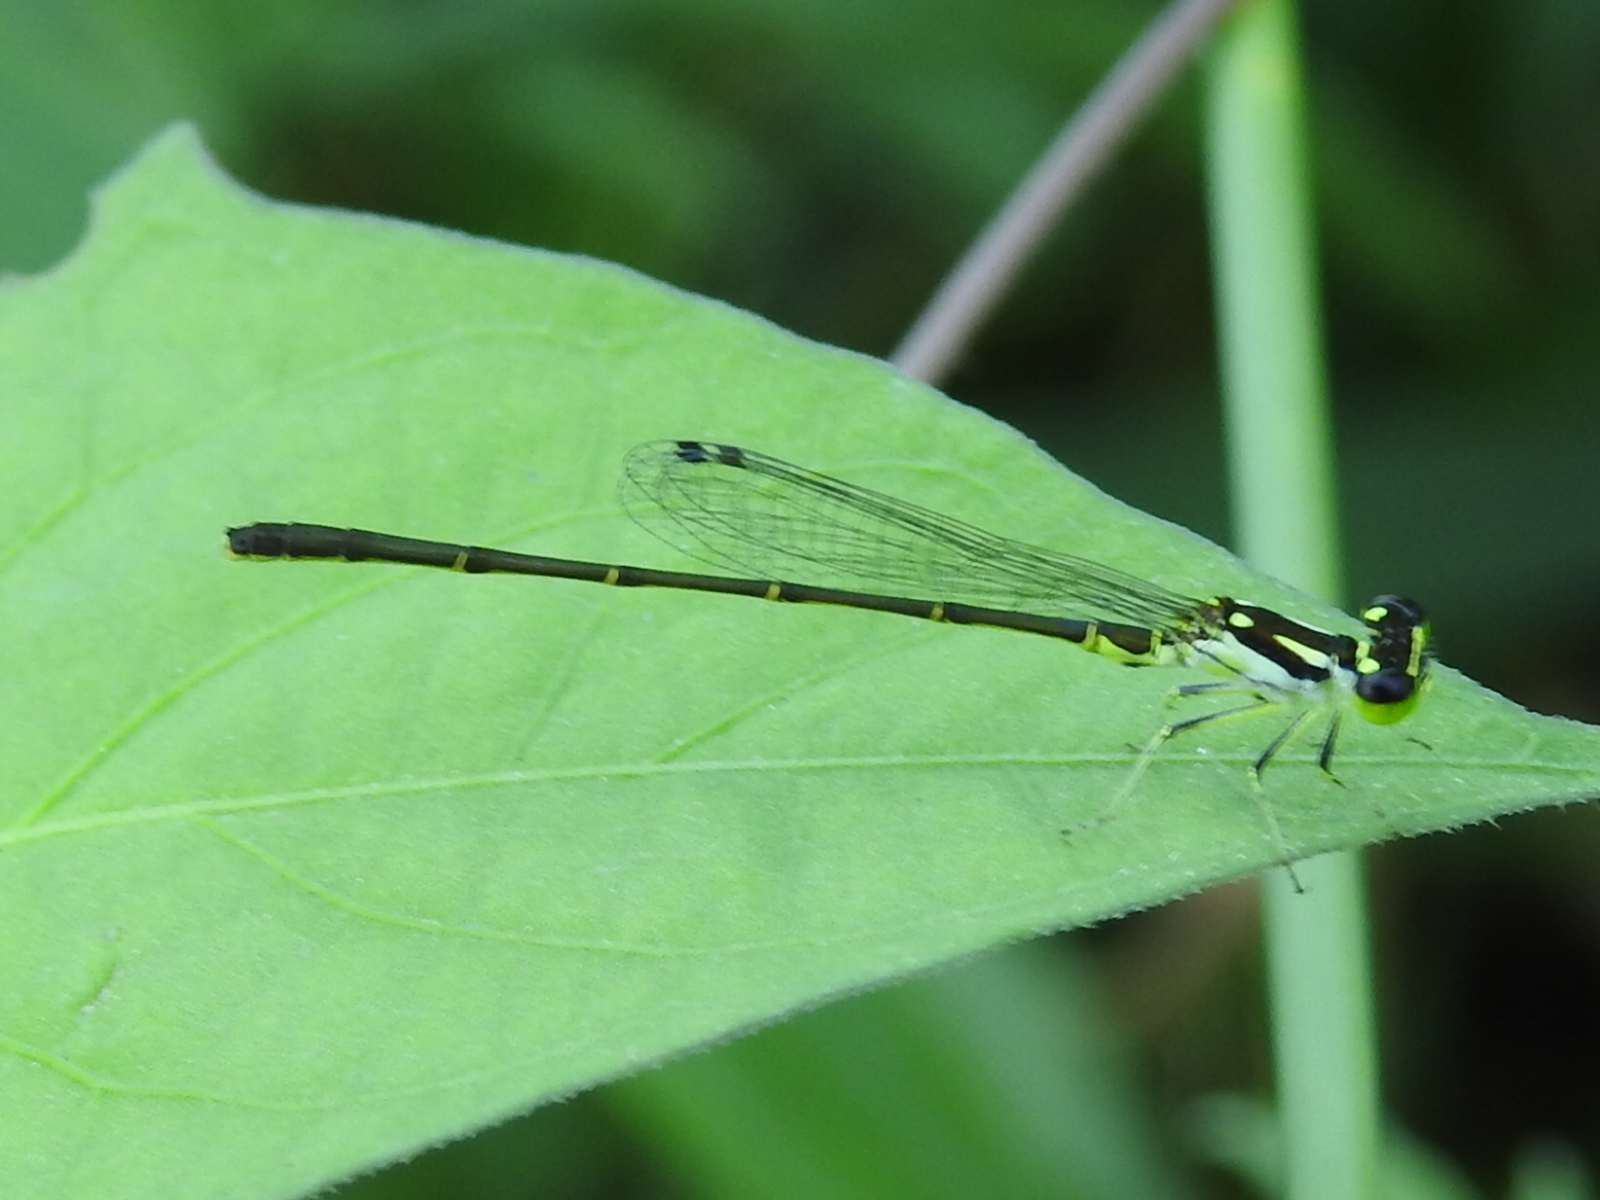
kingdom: Animalia
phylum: Arthropoda
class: Insecta
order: Odonata
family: Coenagrionidae
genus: Ischnura
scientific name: Ischnura posita
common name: Fragile forktail
